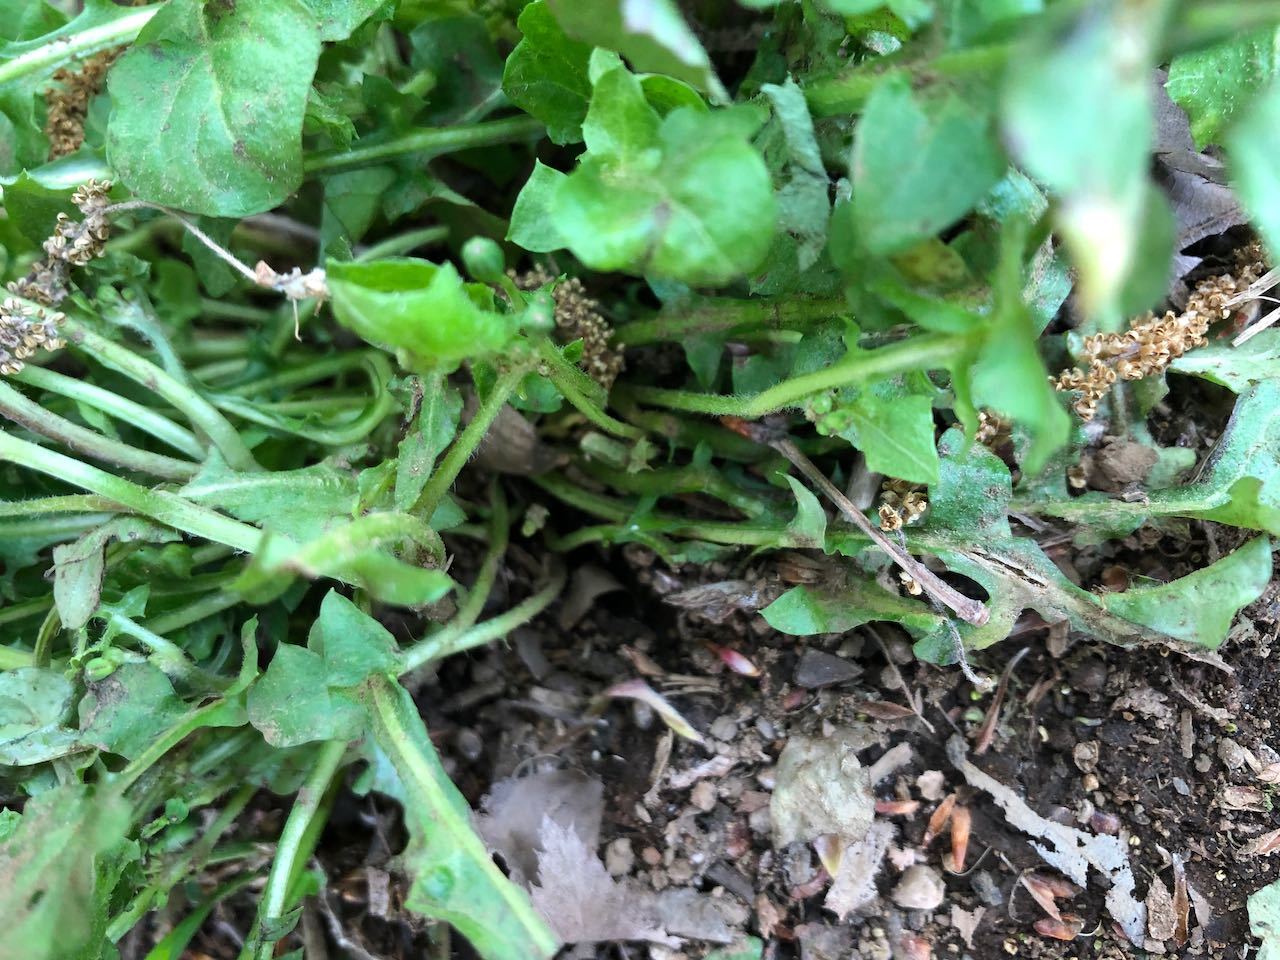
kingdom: Plantae
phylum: Tracheophyta
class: Magnoliopsida
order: Asterales
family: Asteraceae
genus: Lapsanastrum
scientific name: Lapsanastrum humile
